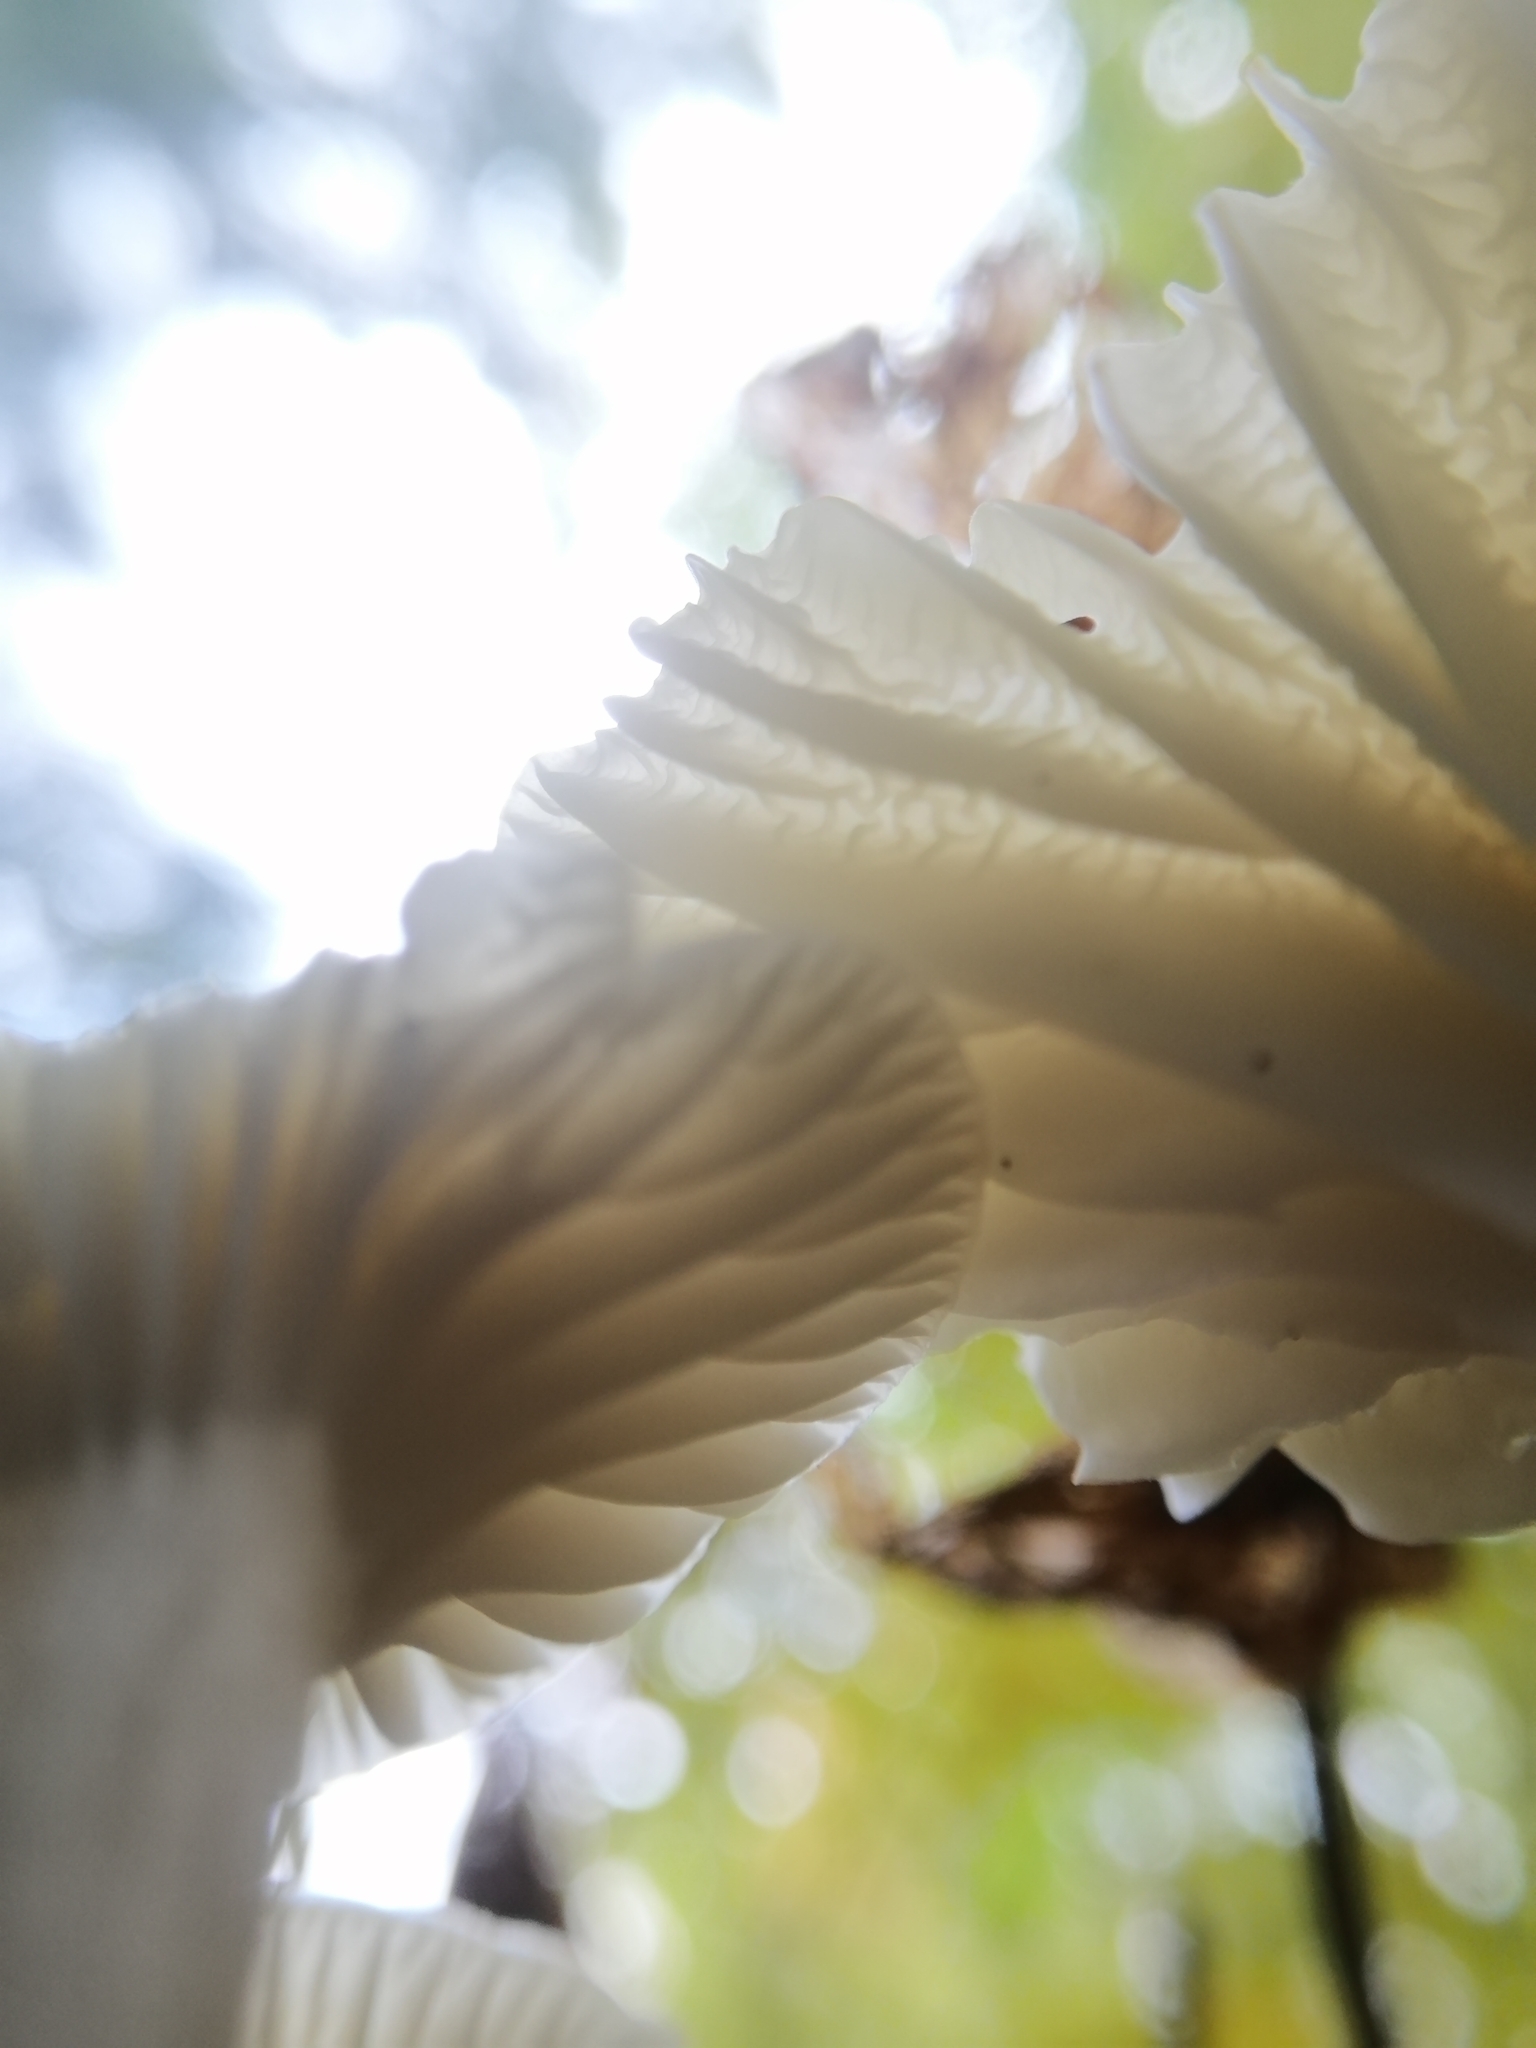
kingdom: Fungi
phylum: Basidiomycota
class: Agaricomycetes
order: Agaricales
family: Hygrophoraceae
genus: Cuphophyllus
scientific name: Cuphophyllus virgineus
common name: Snowy waxcap
